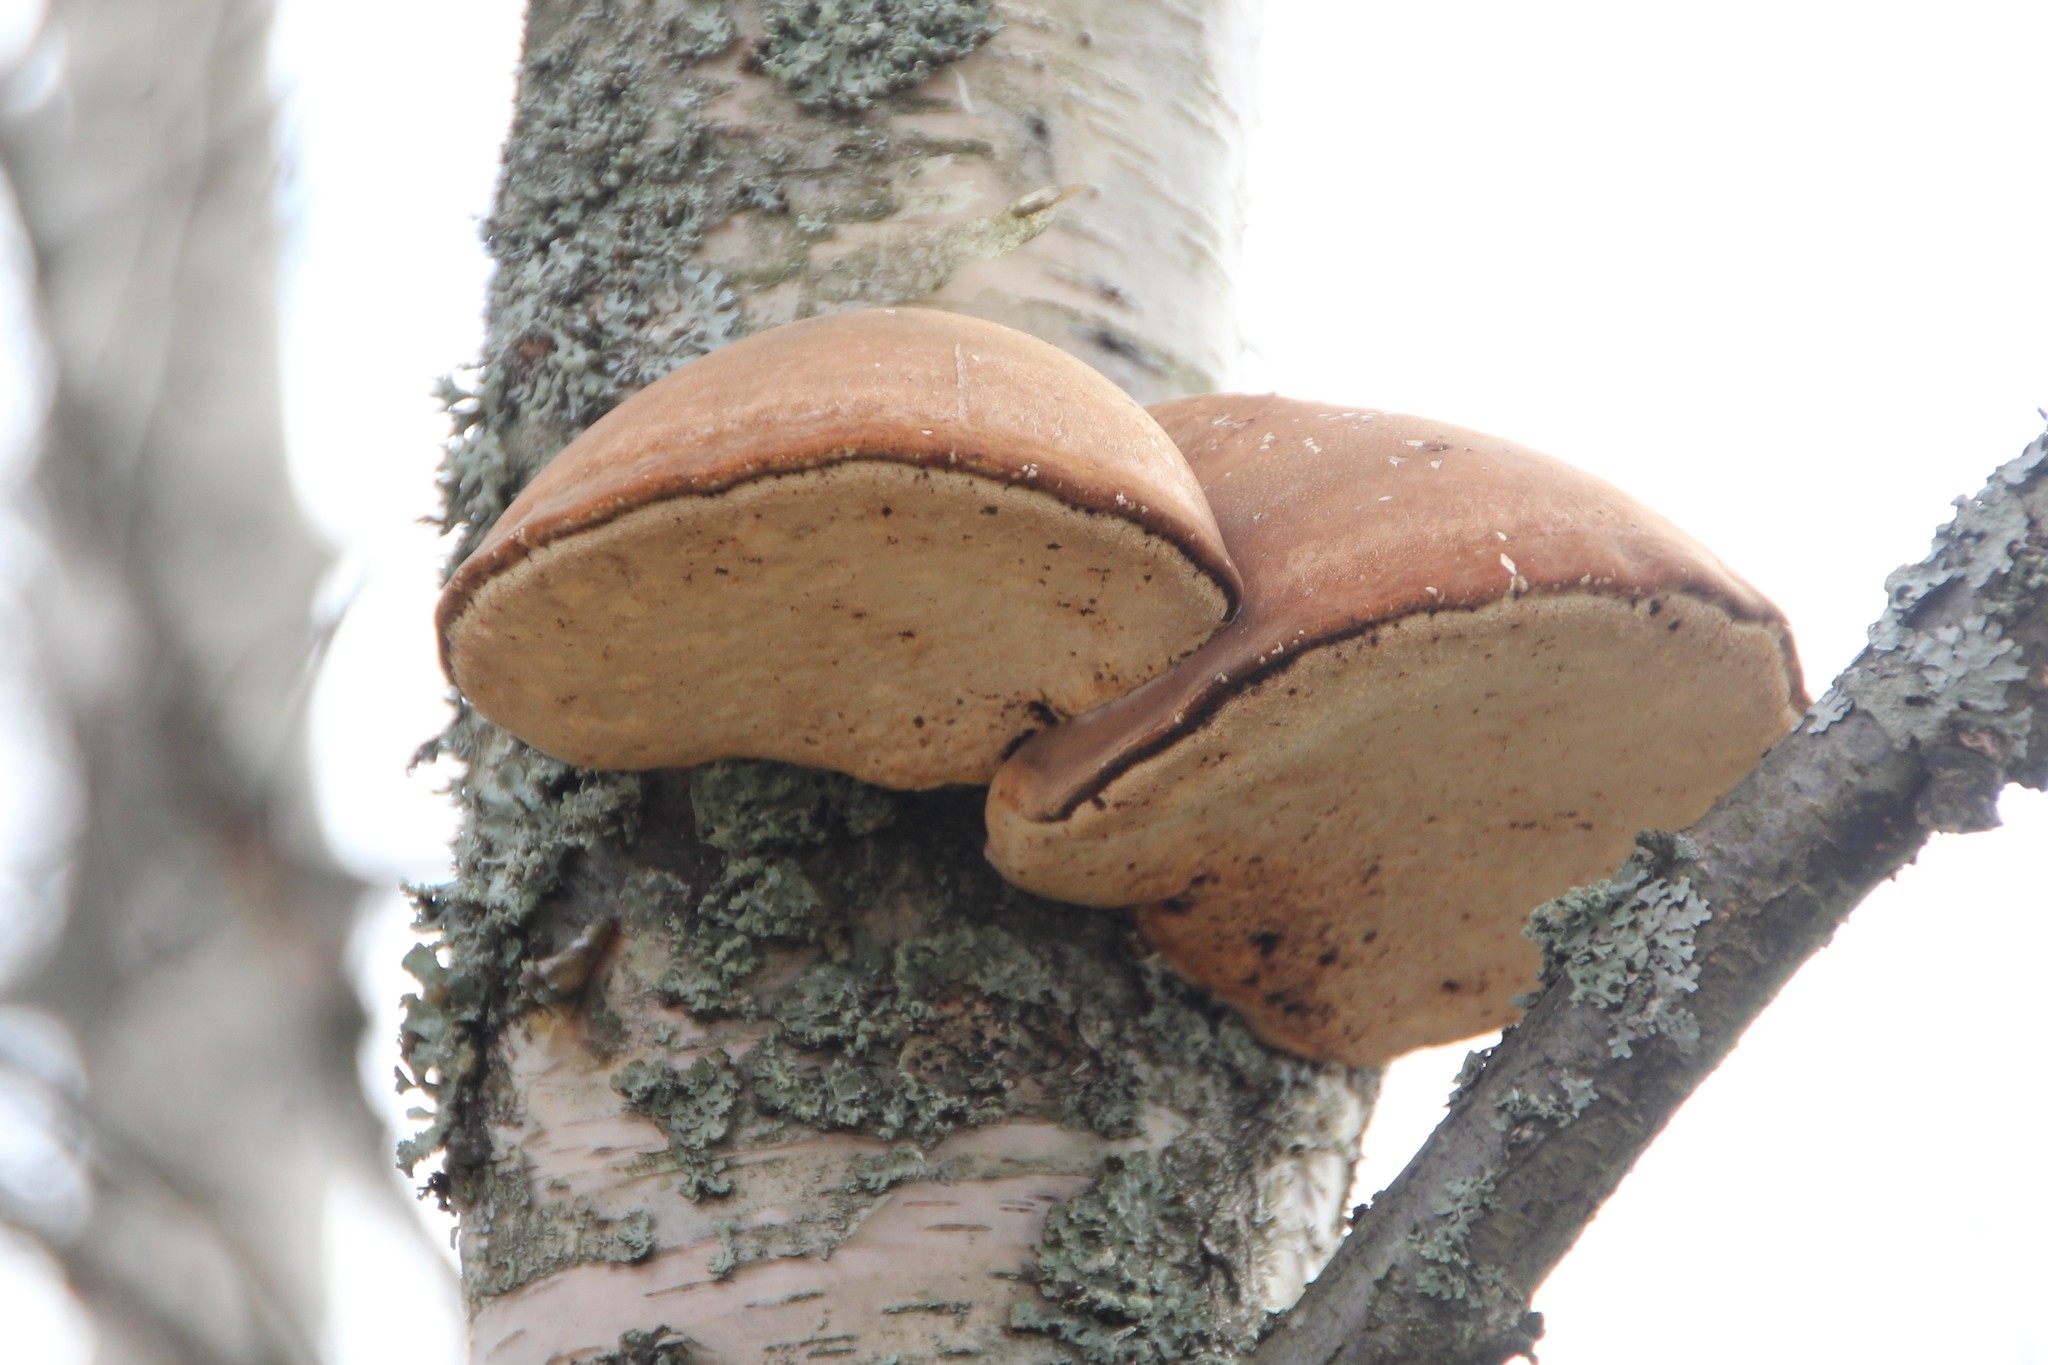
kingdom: Fungi
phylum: Basidiomycota
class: Agaricomycetes
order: Polyporales
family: Fomitopsidaceae
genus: Fomitopsis
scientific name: Fomitopsis betulina
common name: Birch polypore
